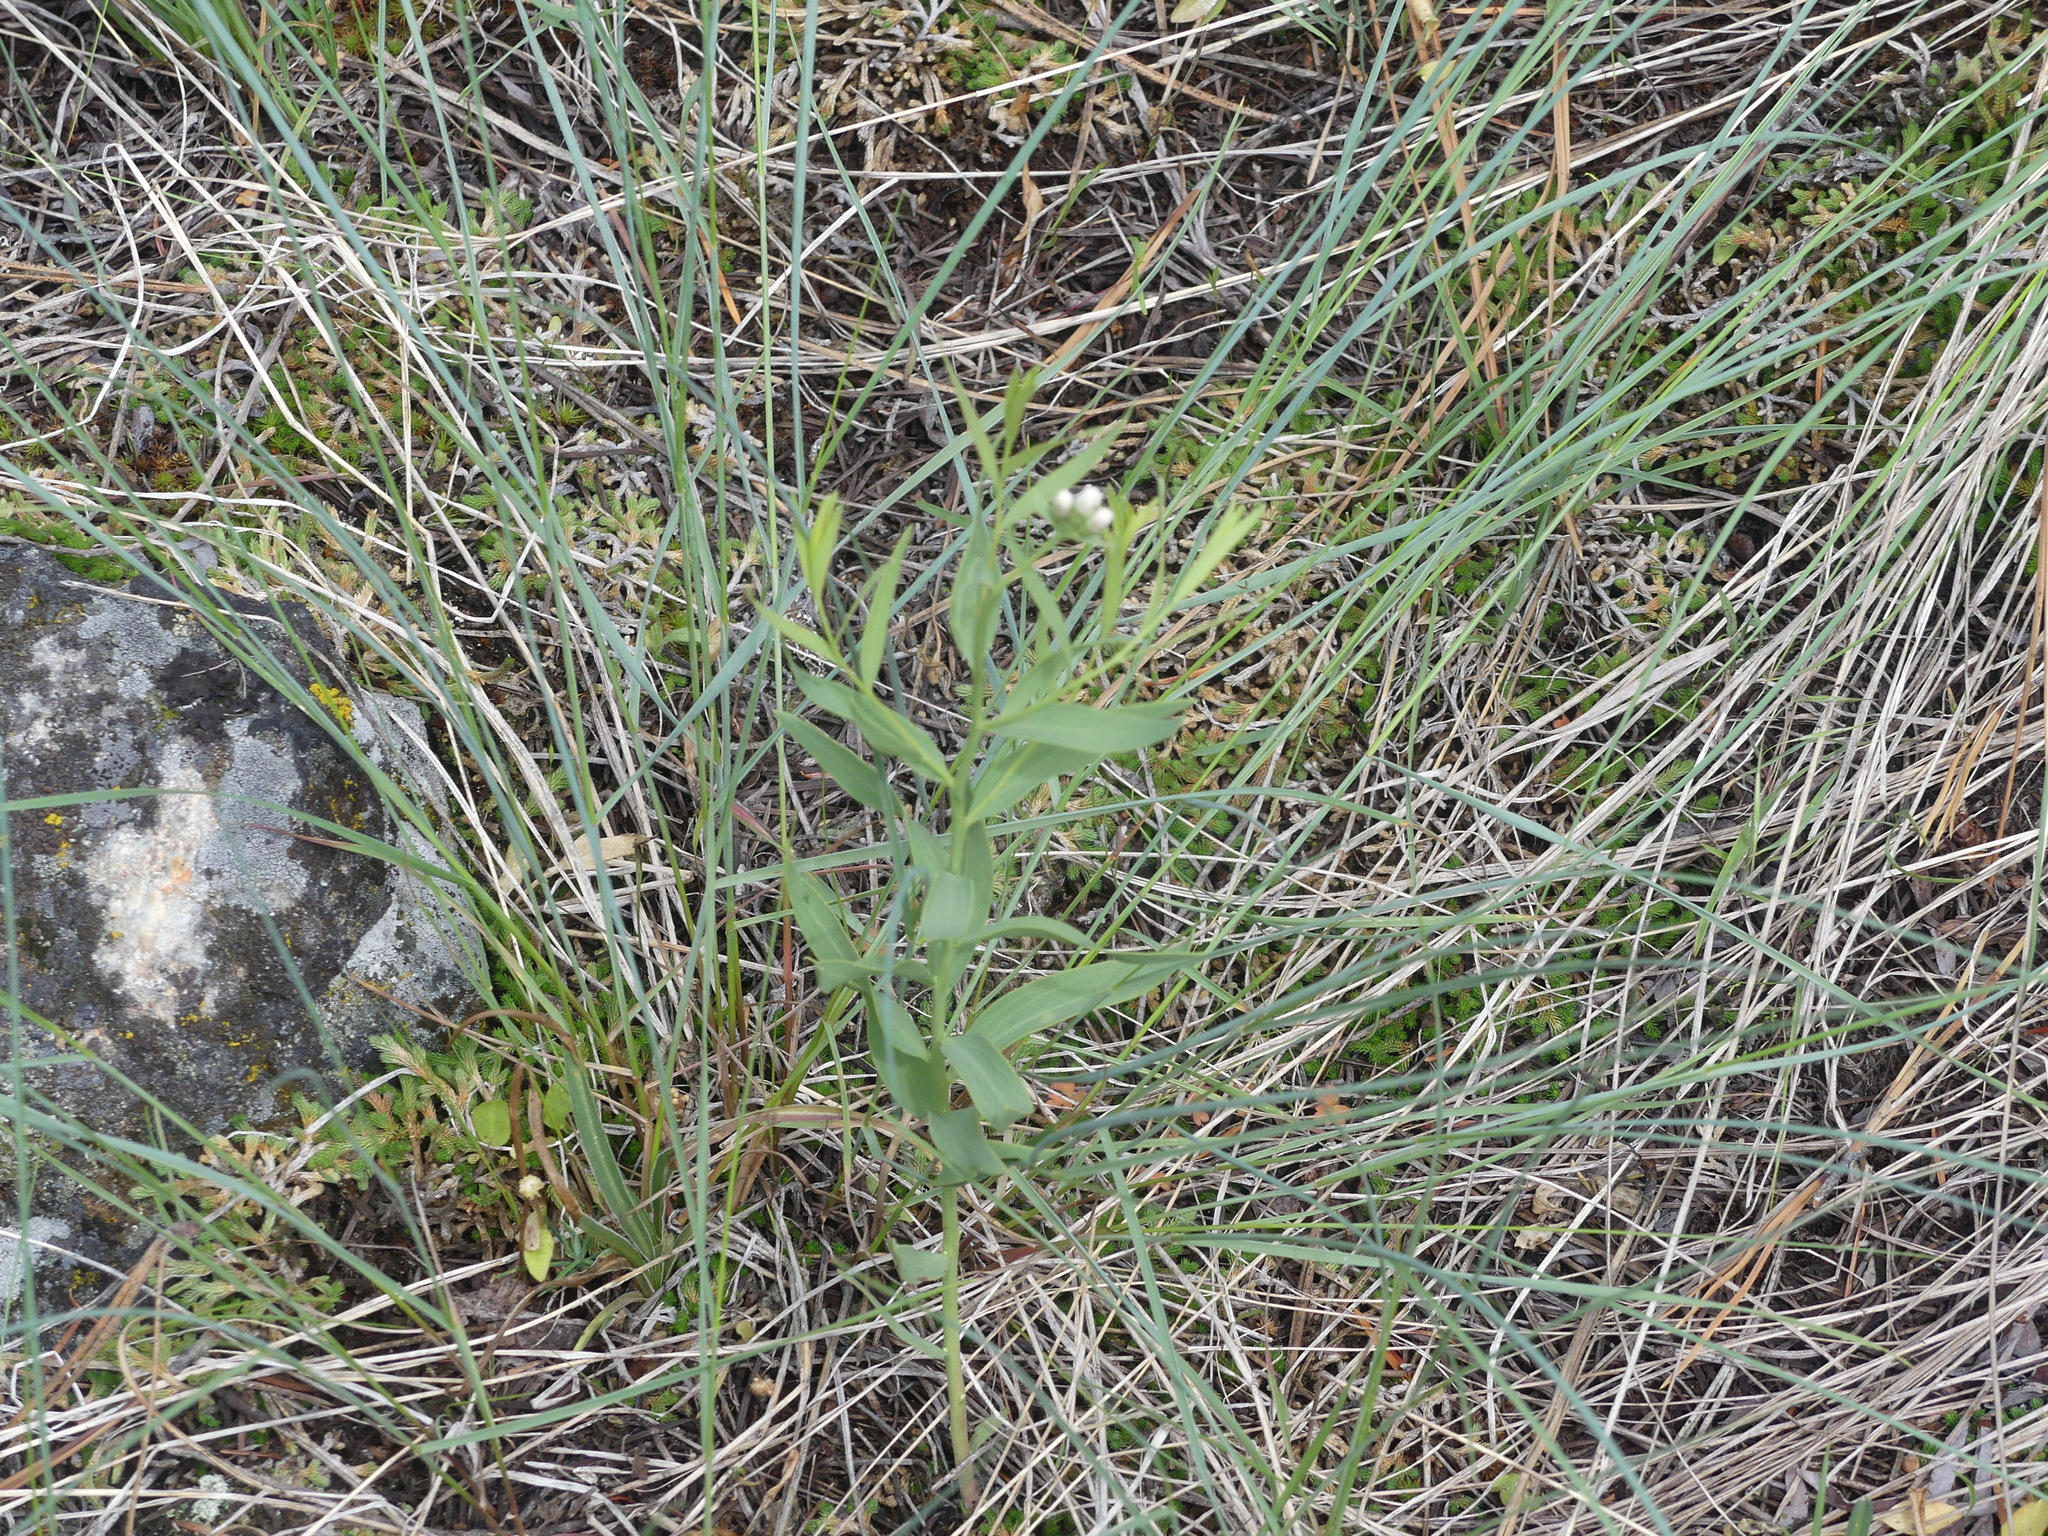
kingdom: Plantae
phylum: Tracheophyta
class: Magnoliopsida
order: Santalales
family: Comandraceae
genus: Comandra
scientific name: Comandra umbellata
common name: Bastard toadflax
